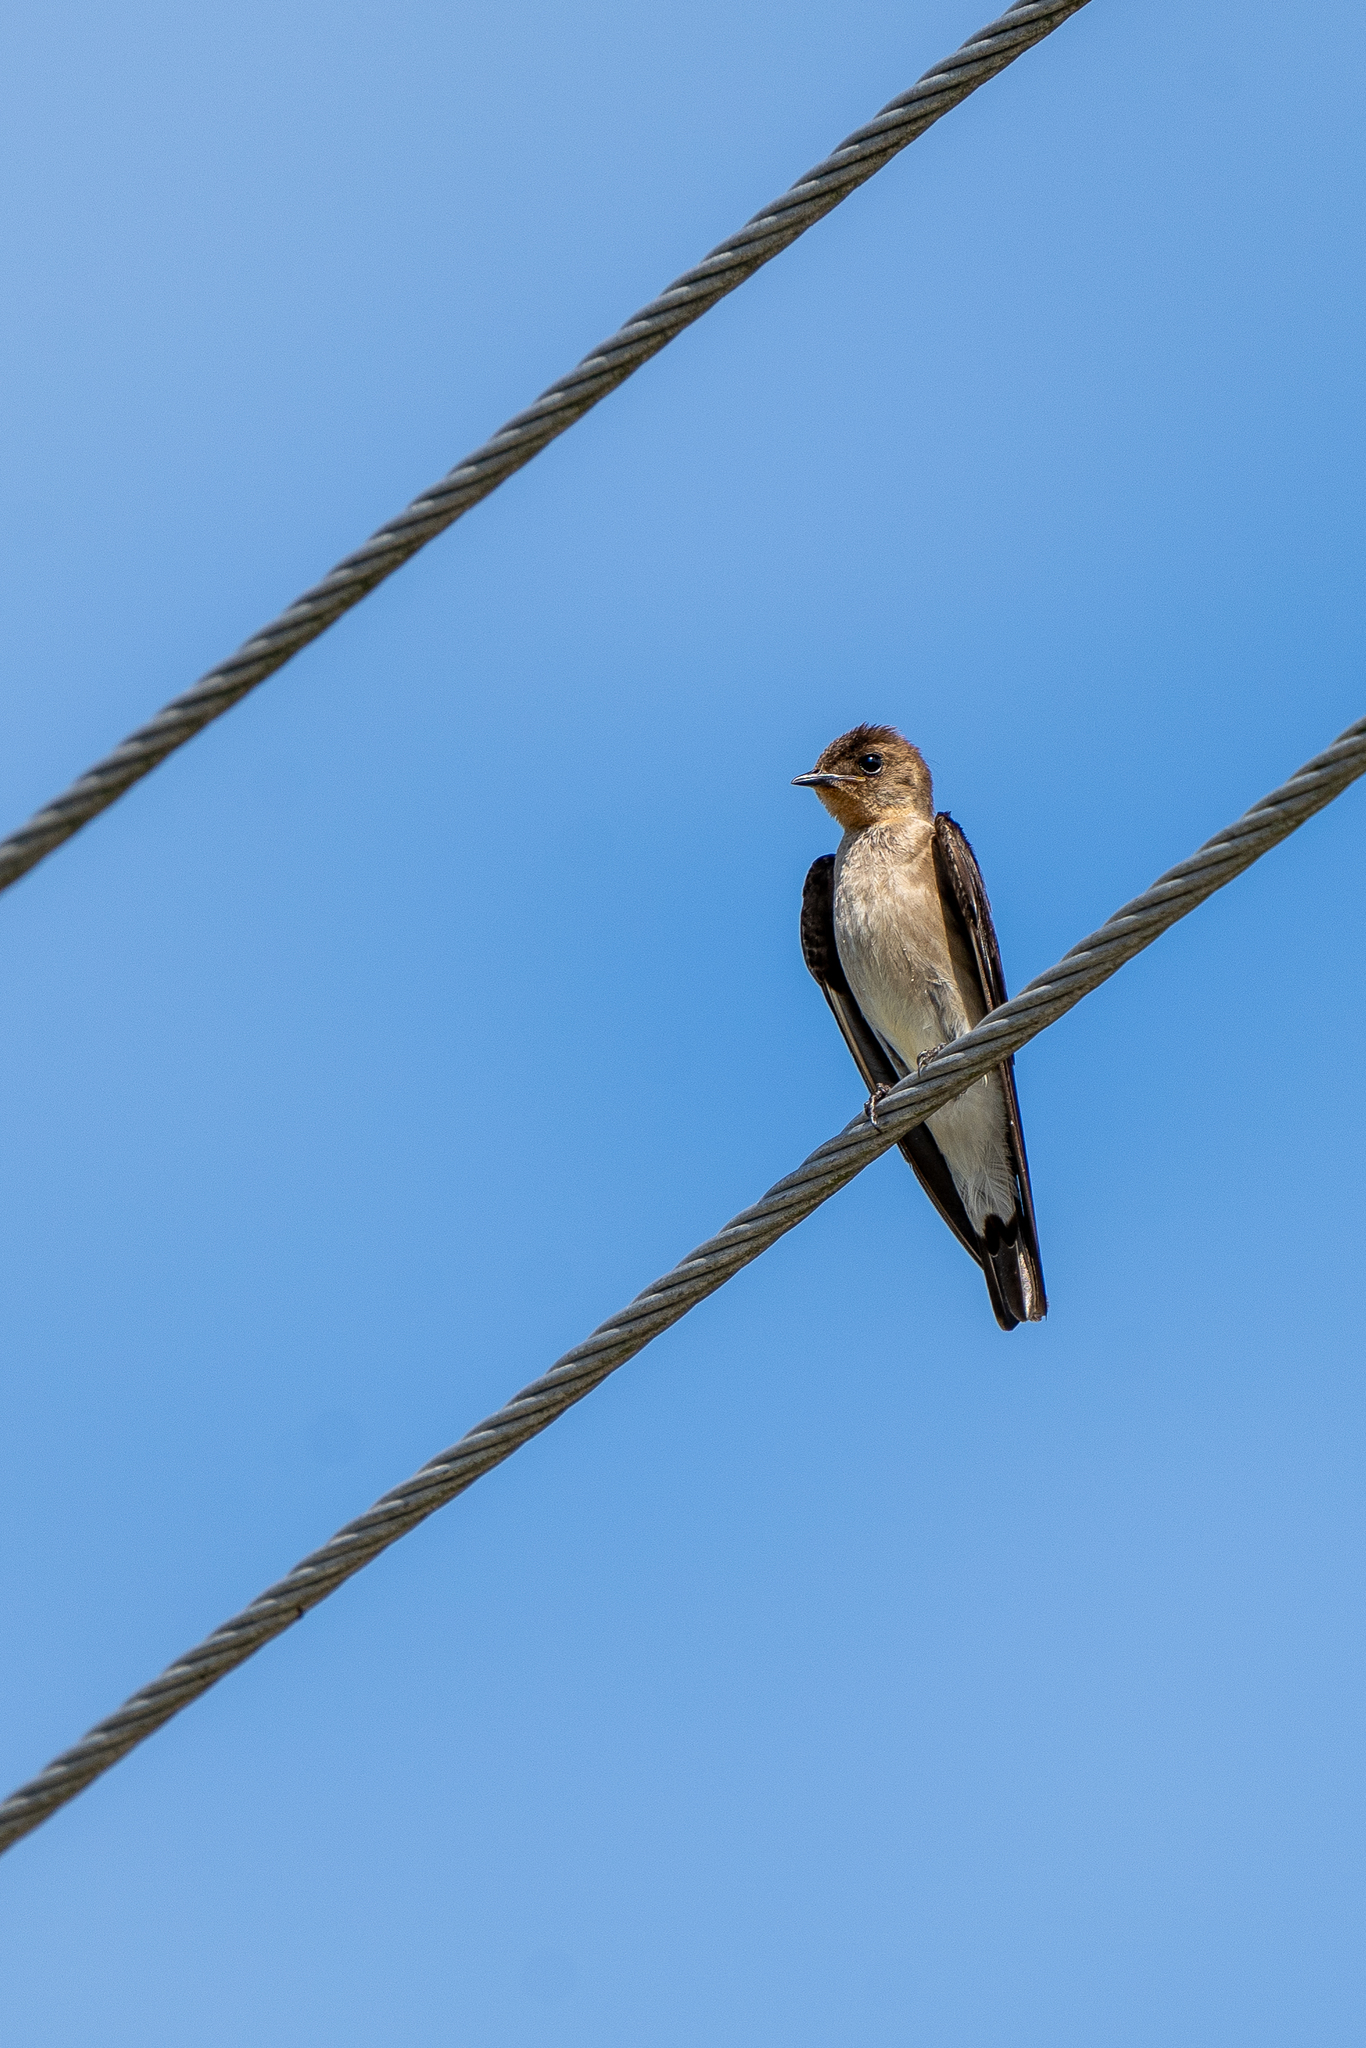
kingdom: Animalia
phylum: Chordata
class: Aves
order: Passeriformes
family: Hirundinidae
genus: Stelgidopteryx
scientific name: Stelgidopteryx ruficollis
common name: Southern rough-winged swallow
